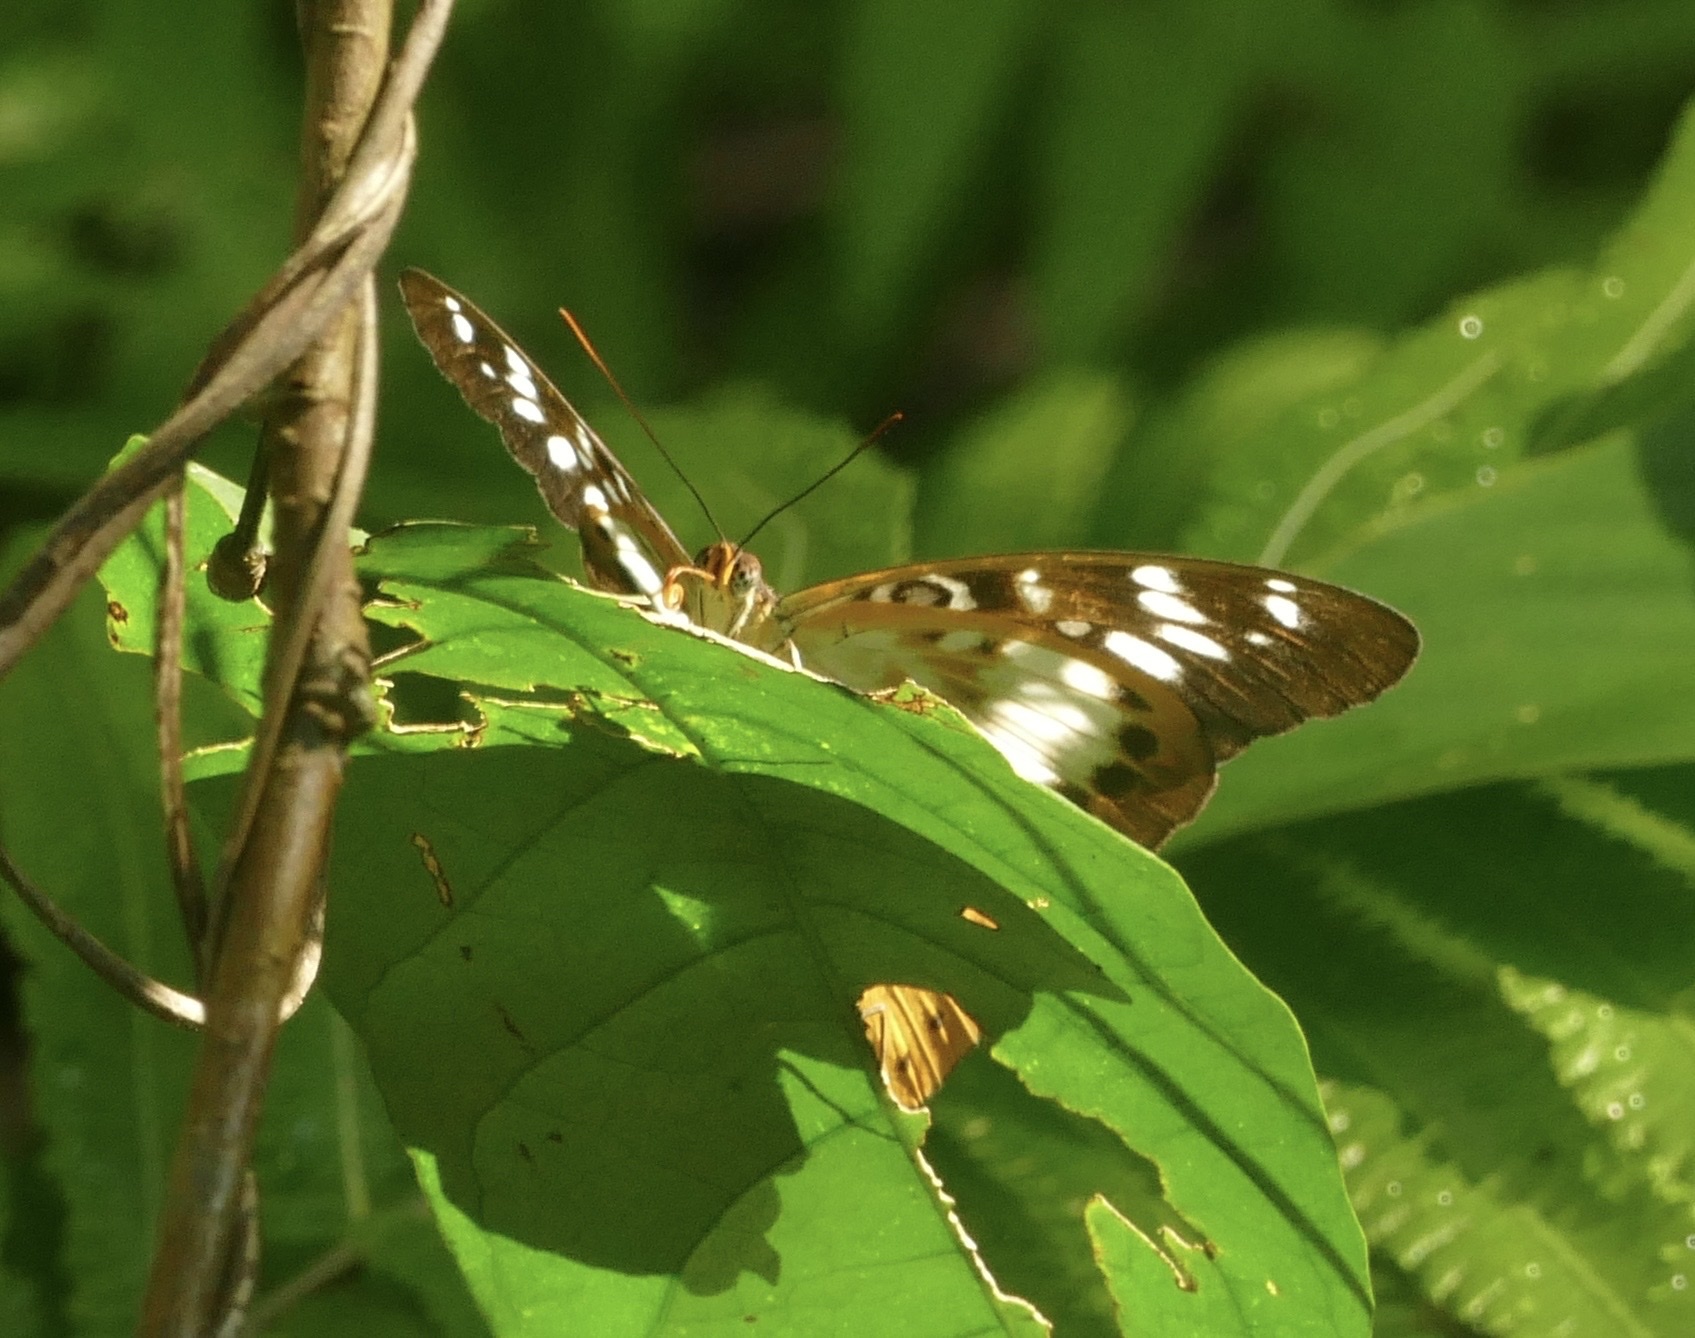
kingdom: Animalia
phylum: Arthropoda
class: Insecta
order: Lepidoptera
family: Nymphalidae
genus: Lexias
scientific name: Lexias aeropa
